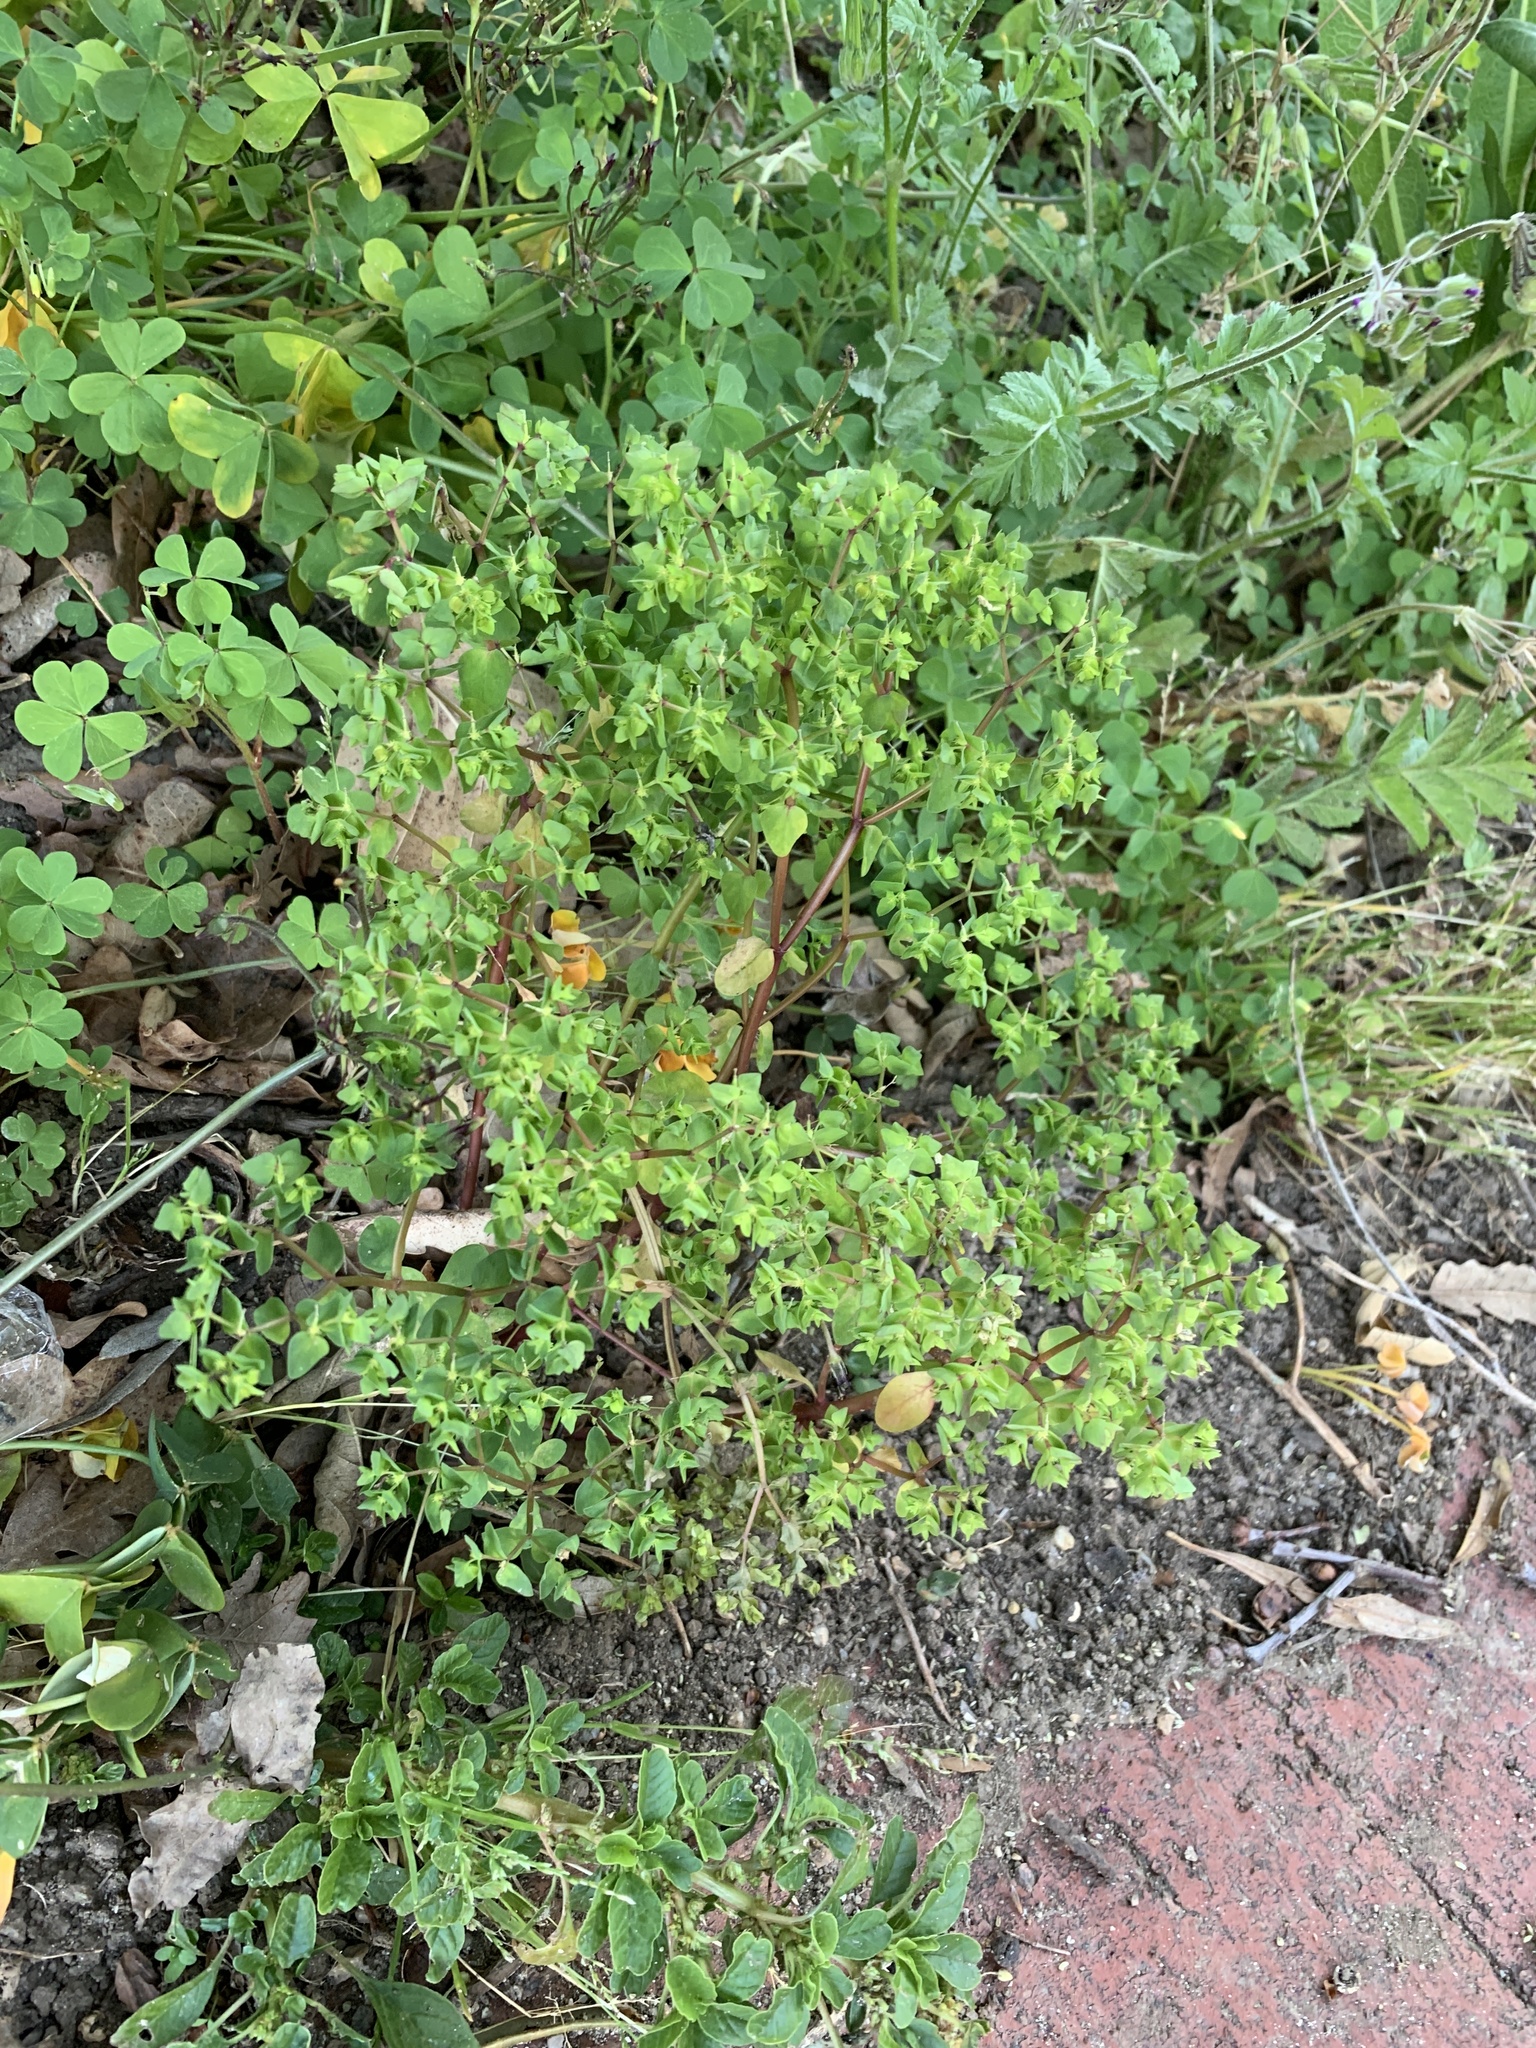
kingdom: Plantae
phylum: Tracheophyta
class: Magnoliopsida
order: Malpighiales
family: Euphorbiaceae
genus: Euphorbia
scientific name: Euphorbia peplus
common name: Petty spurge
